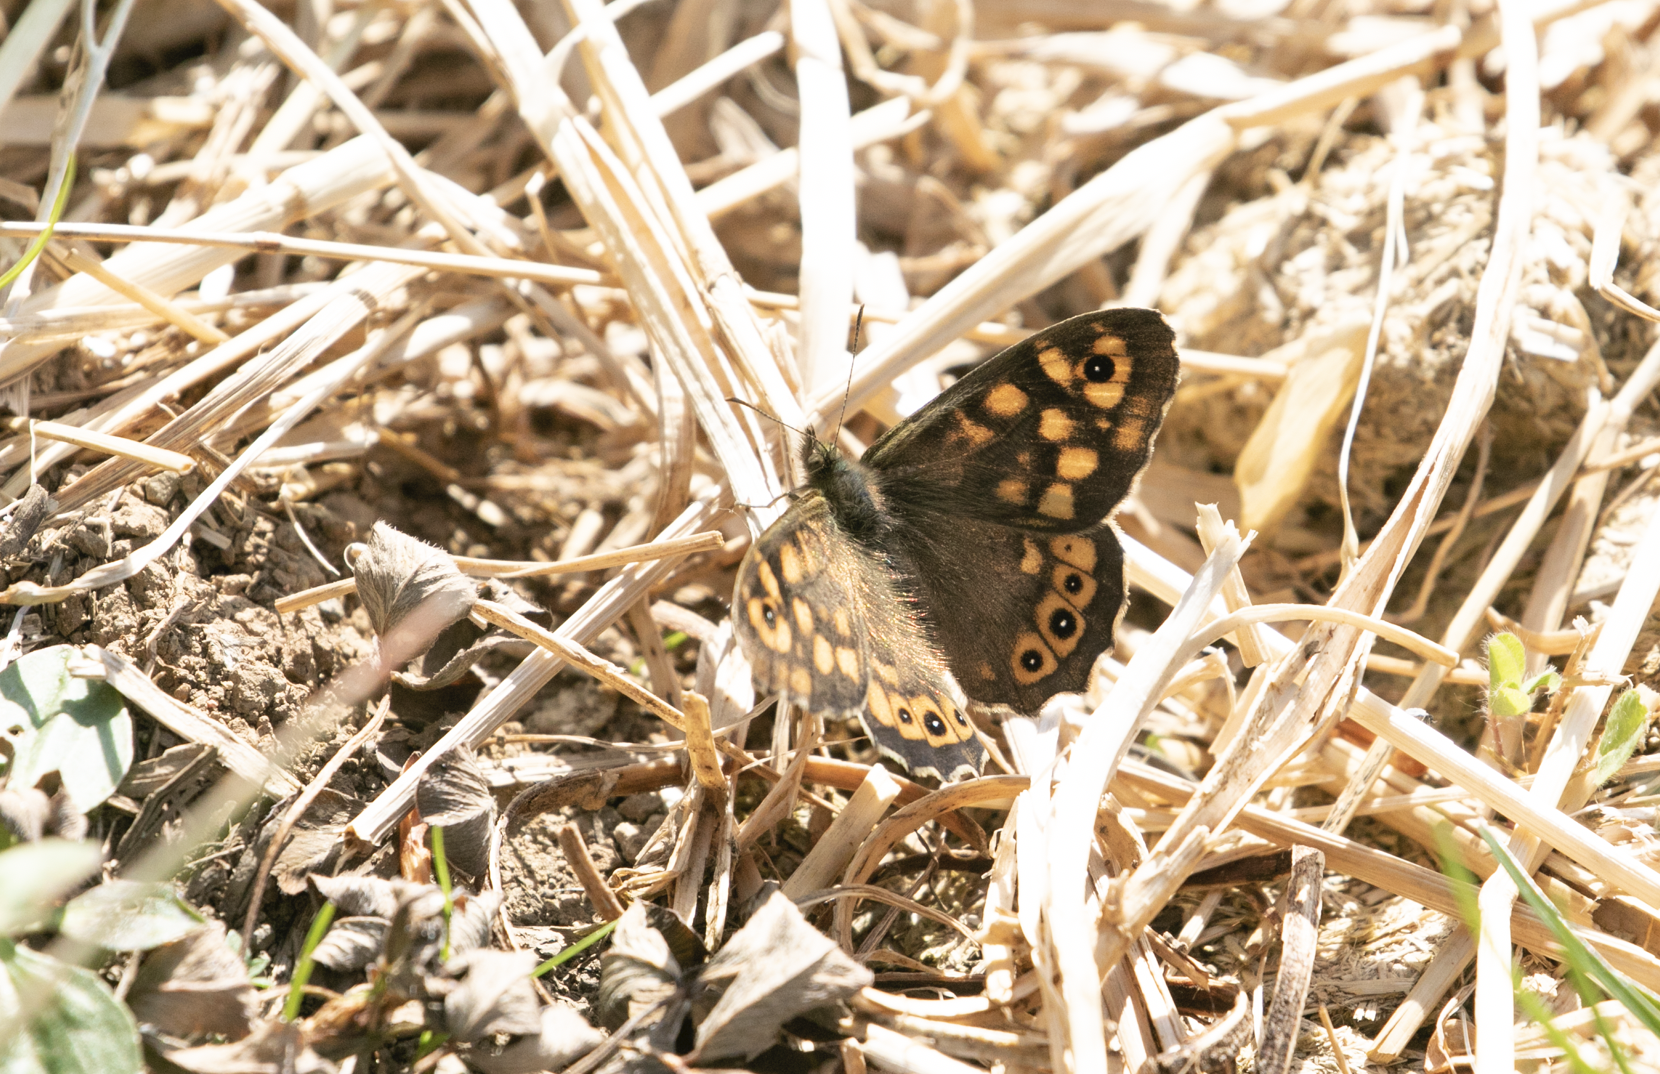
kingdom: Animalia
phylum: Arthropoda
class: Insecta
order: Lepidoptera
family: Nymphalidae
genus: Pararge
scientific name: Pararge aegeria
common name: Speckled wood
